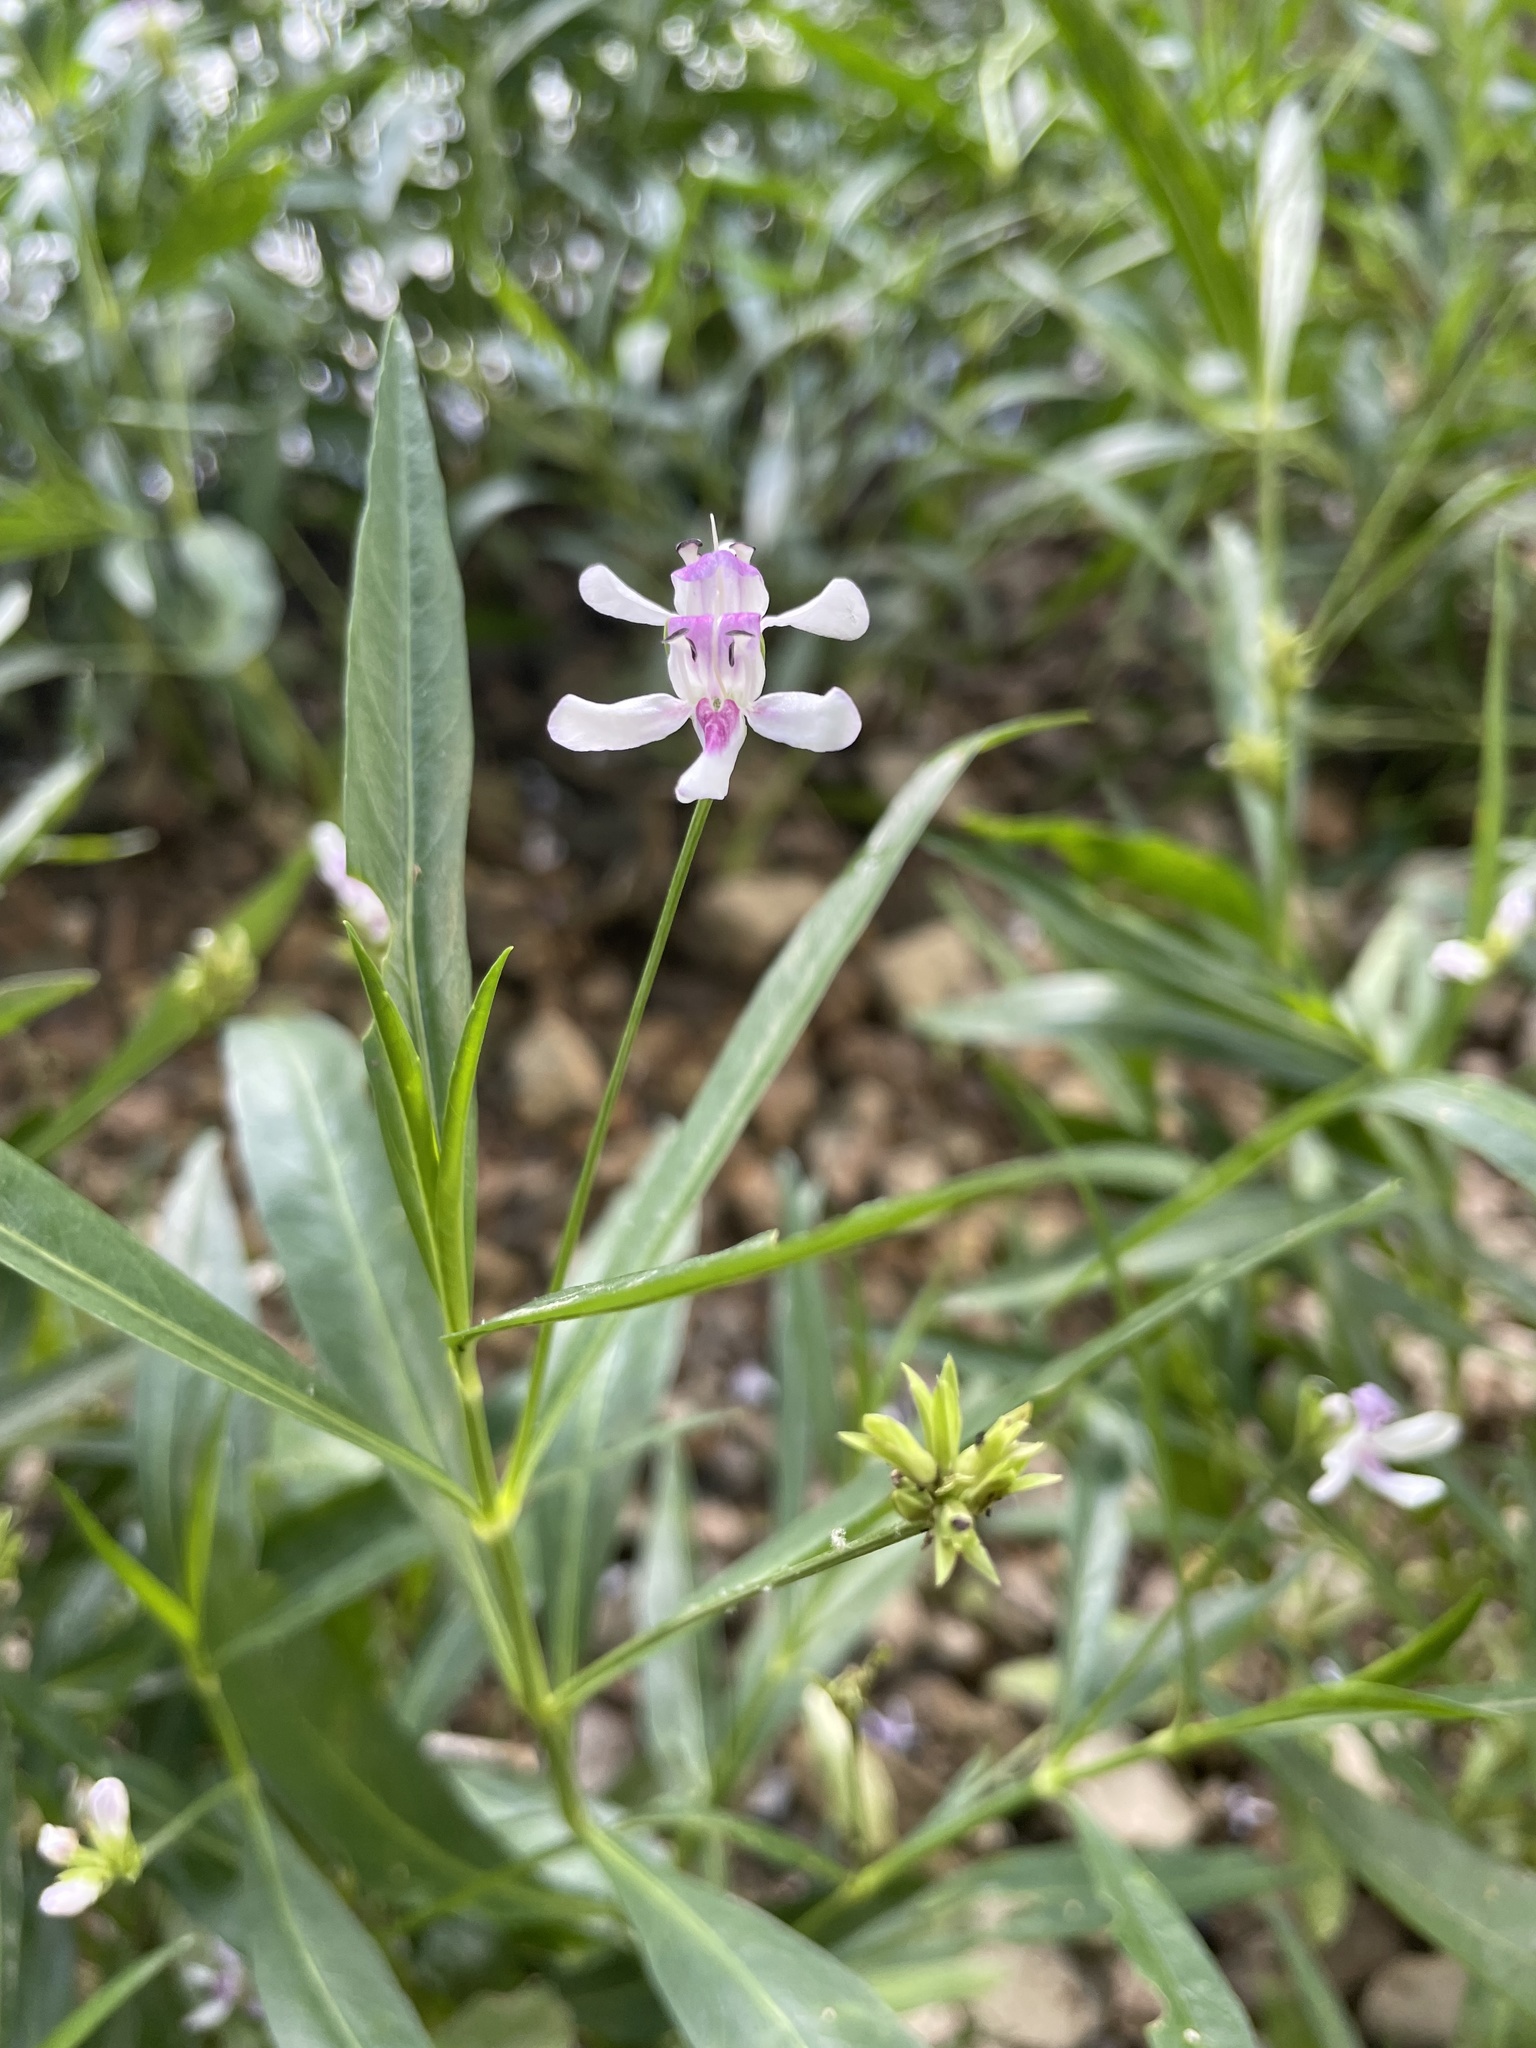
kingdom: Plantae
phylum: Tracheophyta
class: Magnoliopsida
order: Lamiales
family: Acanthaceae
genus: Dianthera
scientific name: Dianthera americana
